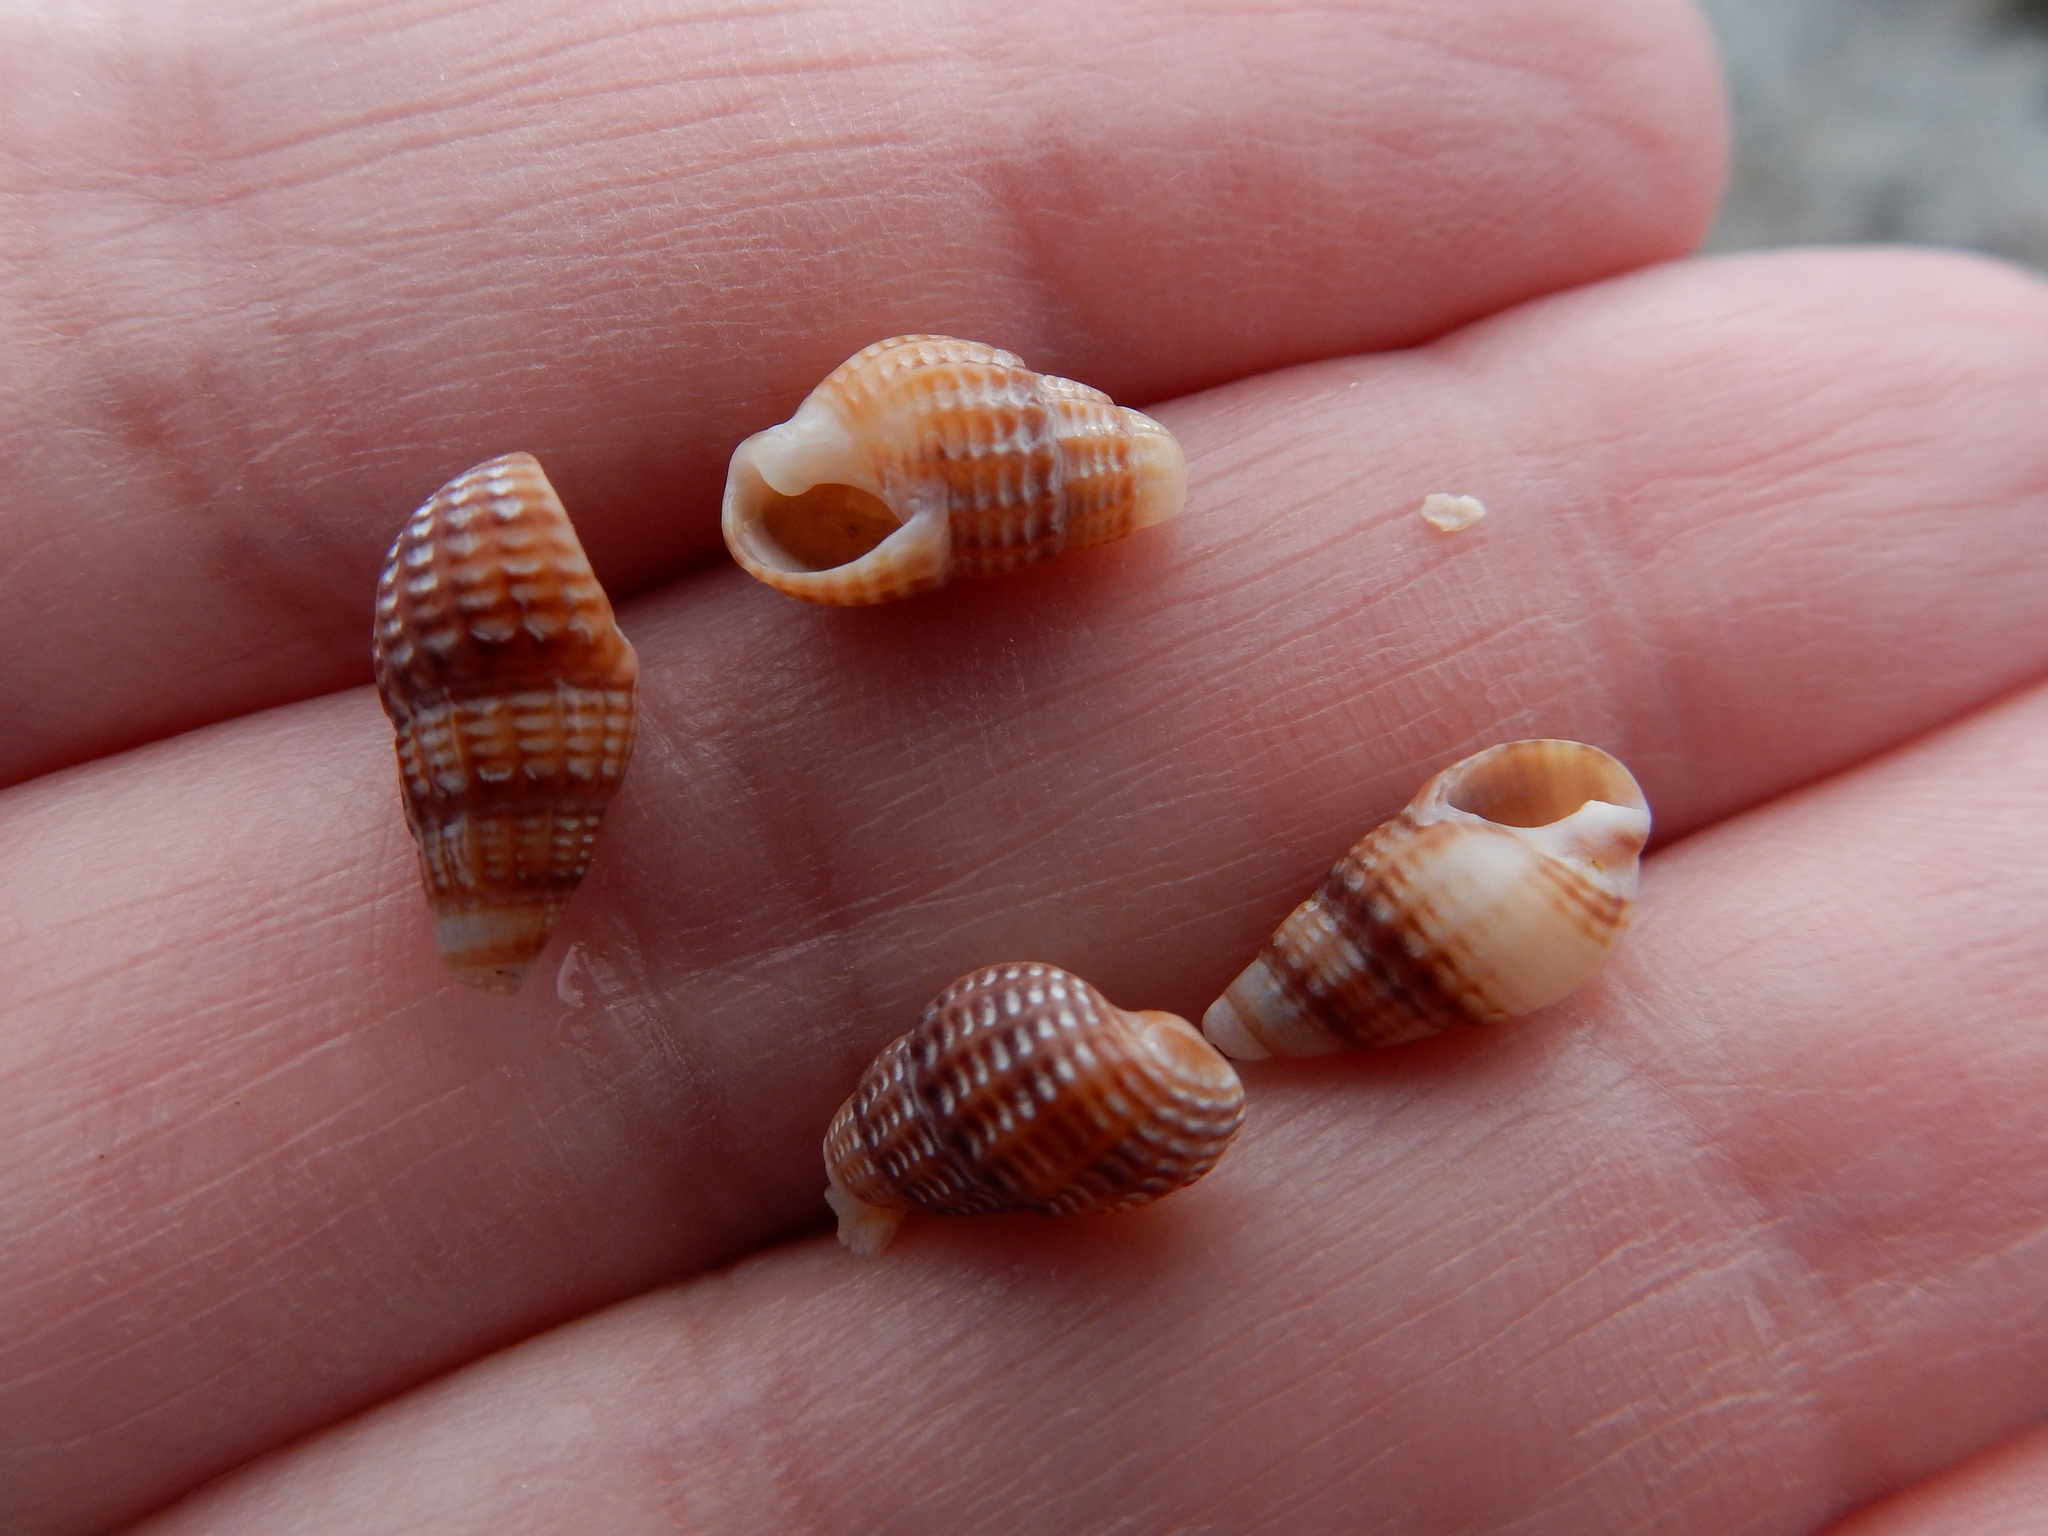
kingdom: Animalia
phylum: Mollusca
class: Gastropoda
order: Neogastropoda
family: Nassariidae
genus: Ilyanassa
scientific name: Ilyanassa trivittata
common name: Three-line mudsnail
